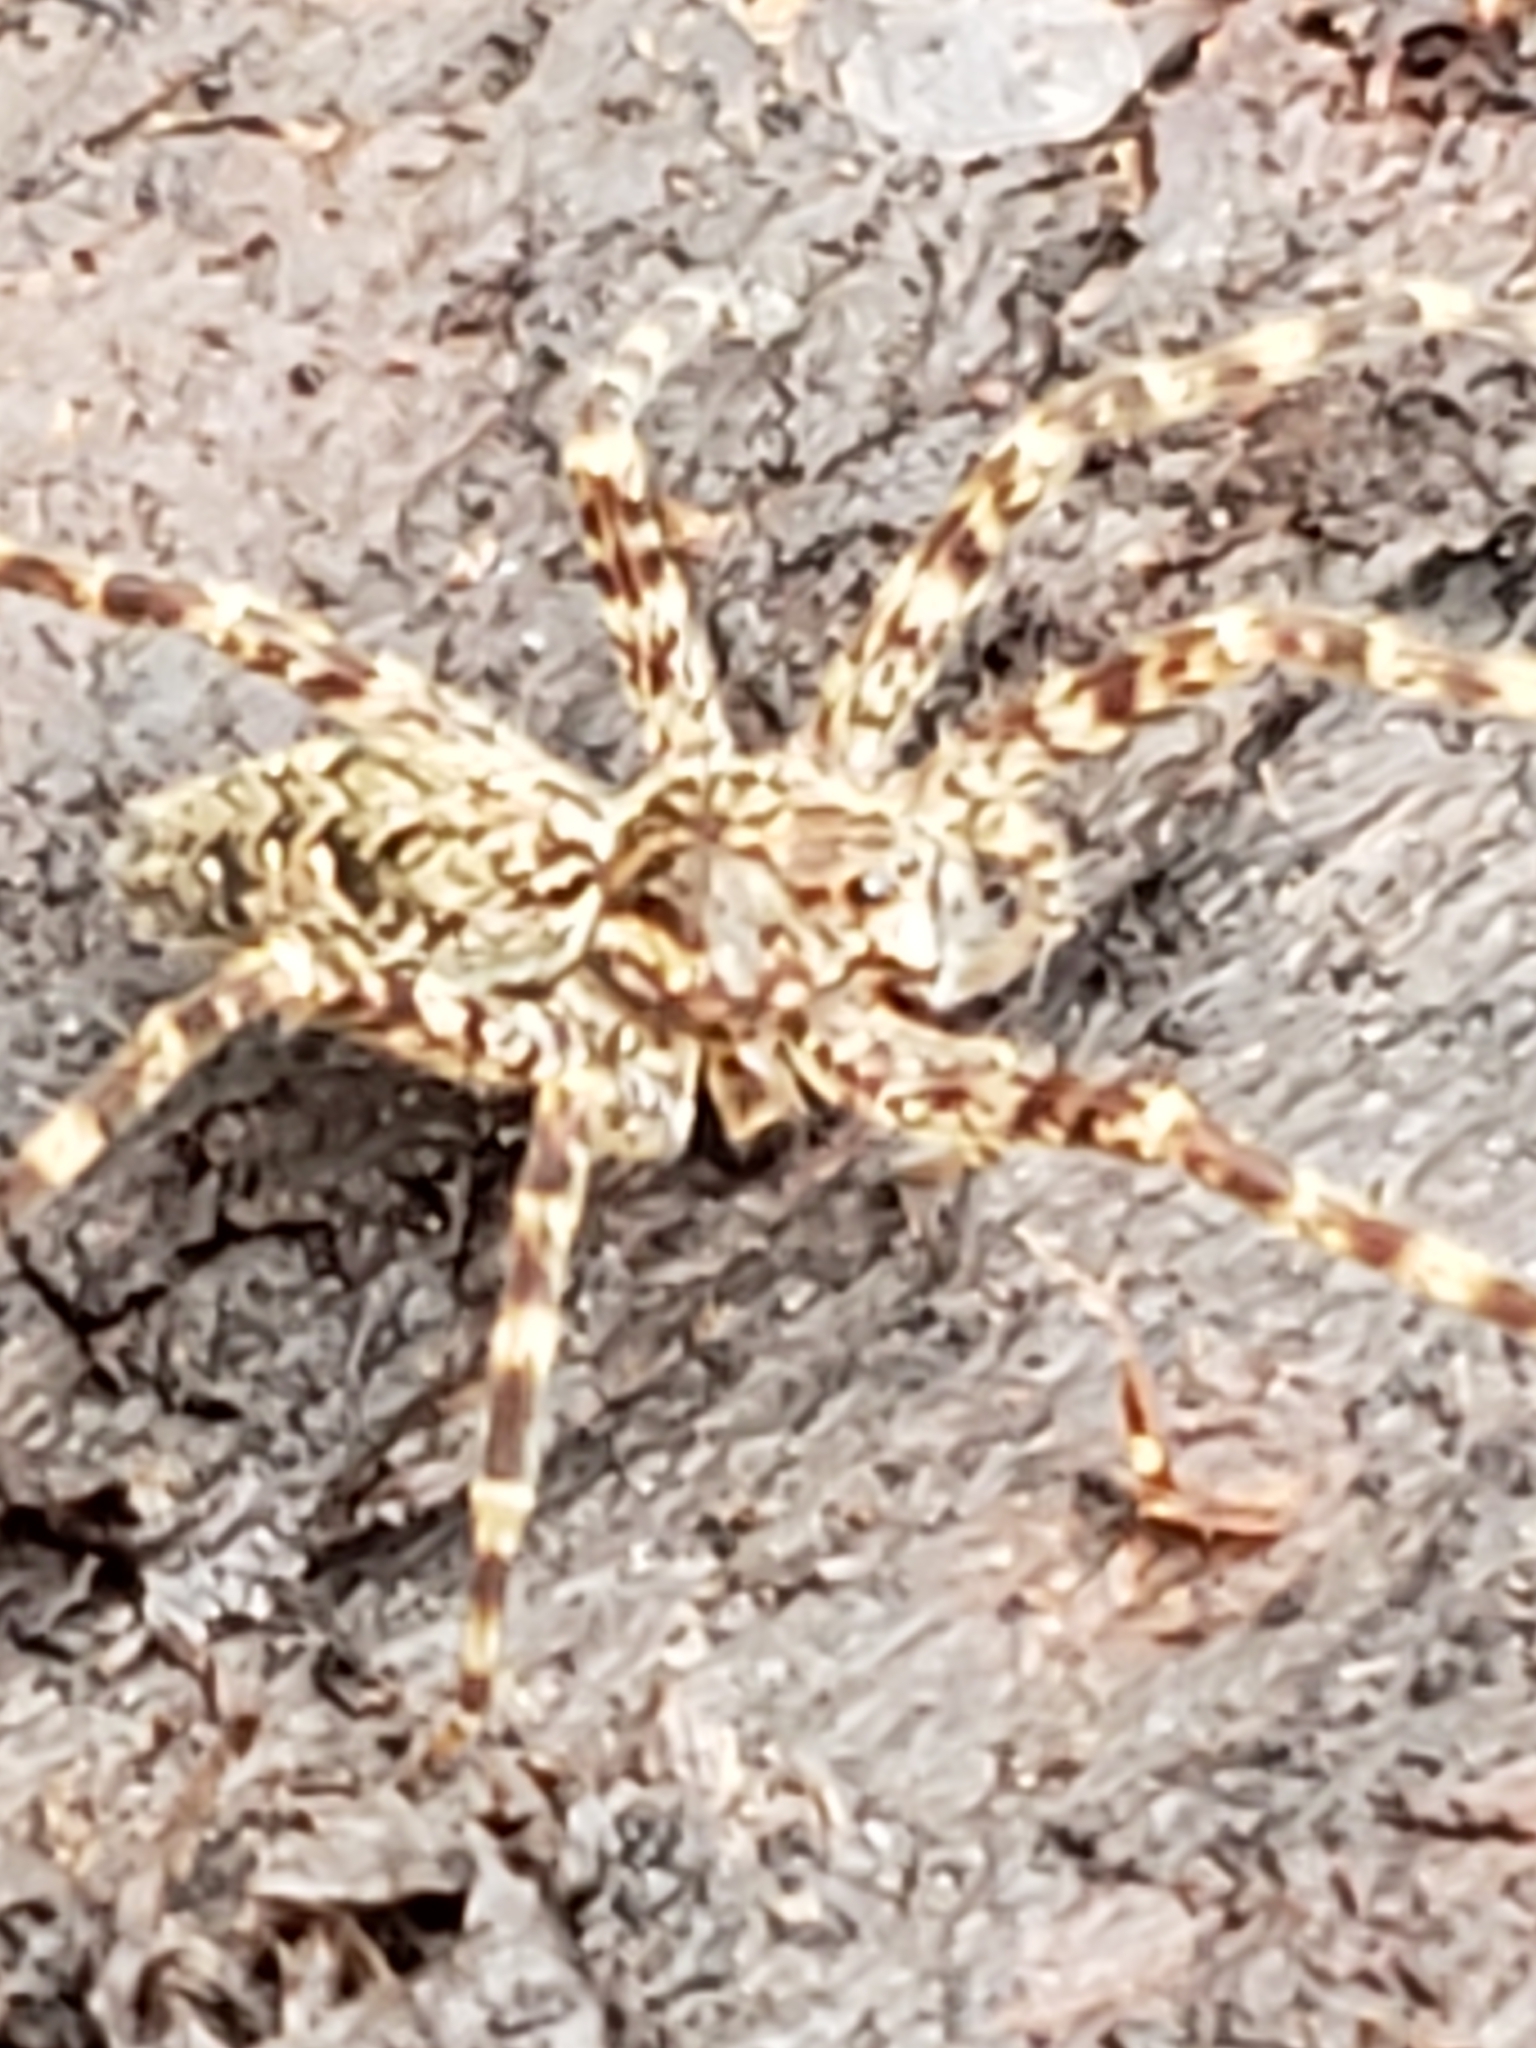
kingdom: Animalia
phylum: Arthropoda
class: Arachnida
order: Araneae
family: Pisauridae
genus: Dolomedes
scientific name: Dolomedes tenebrosus
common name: Dark fishing spider
